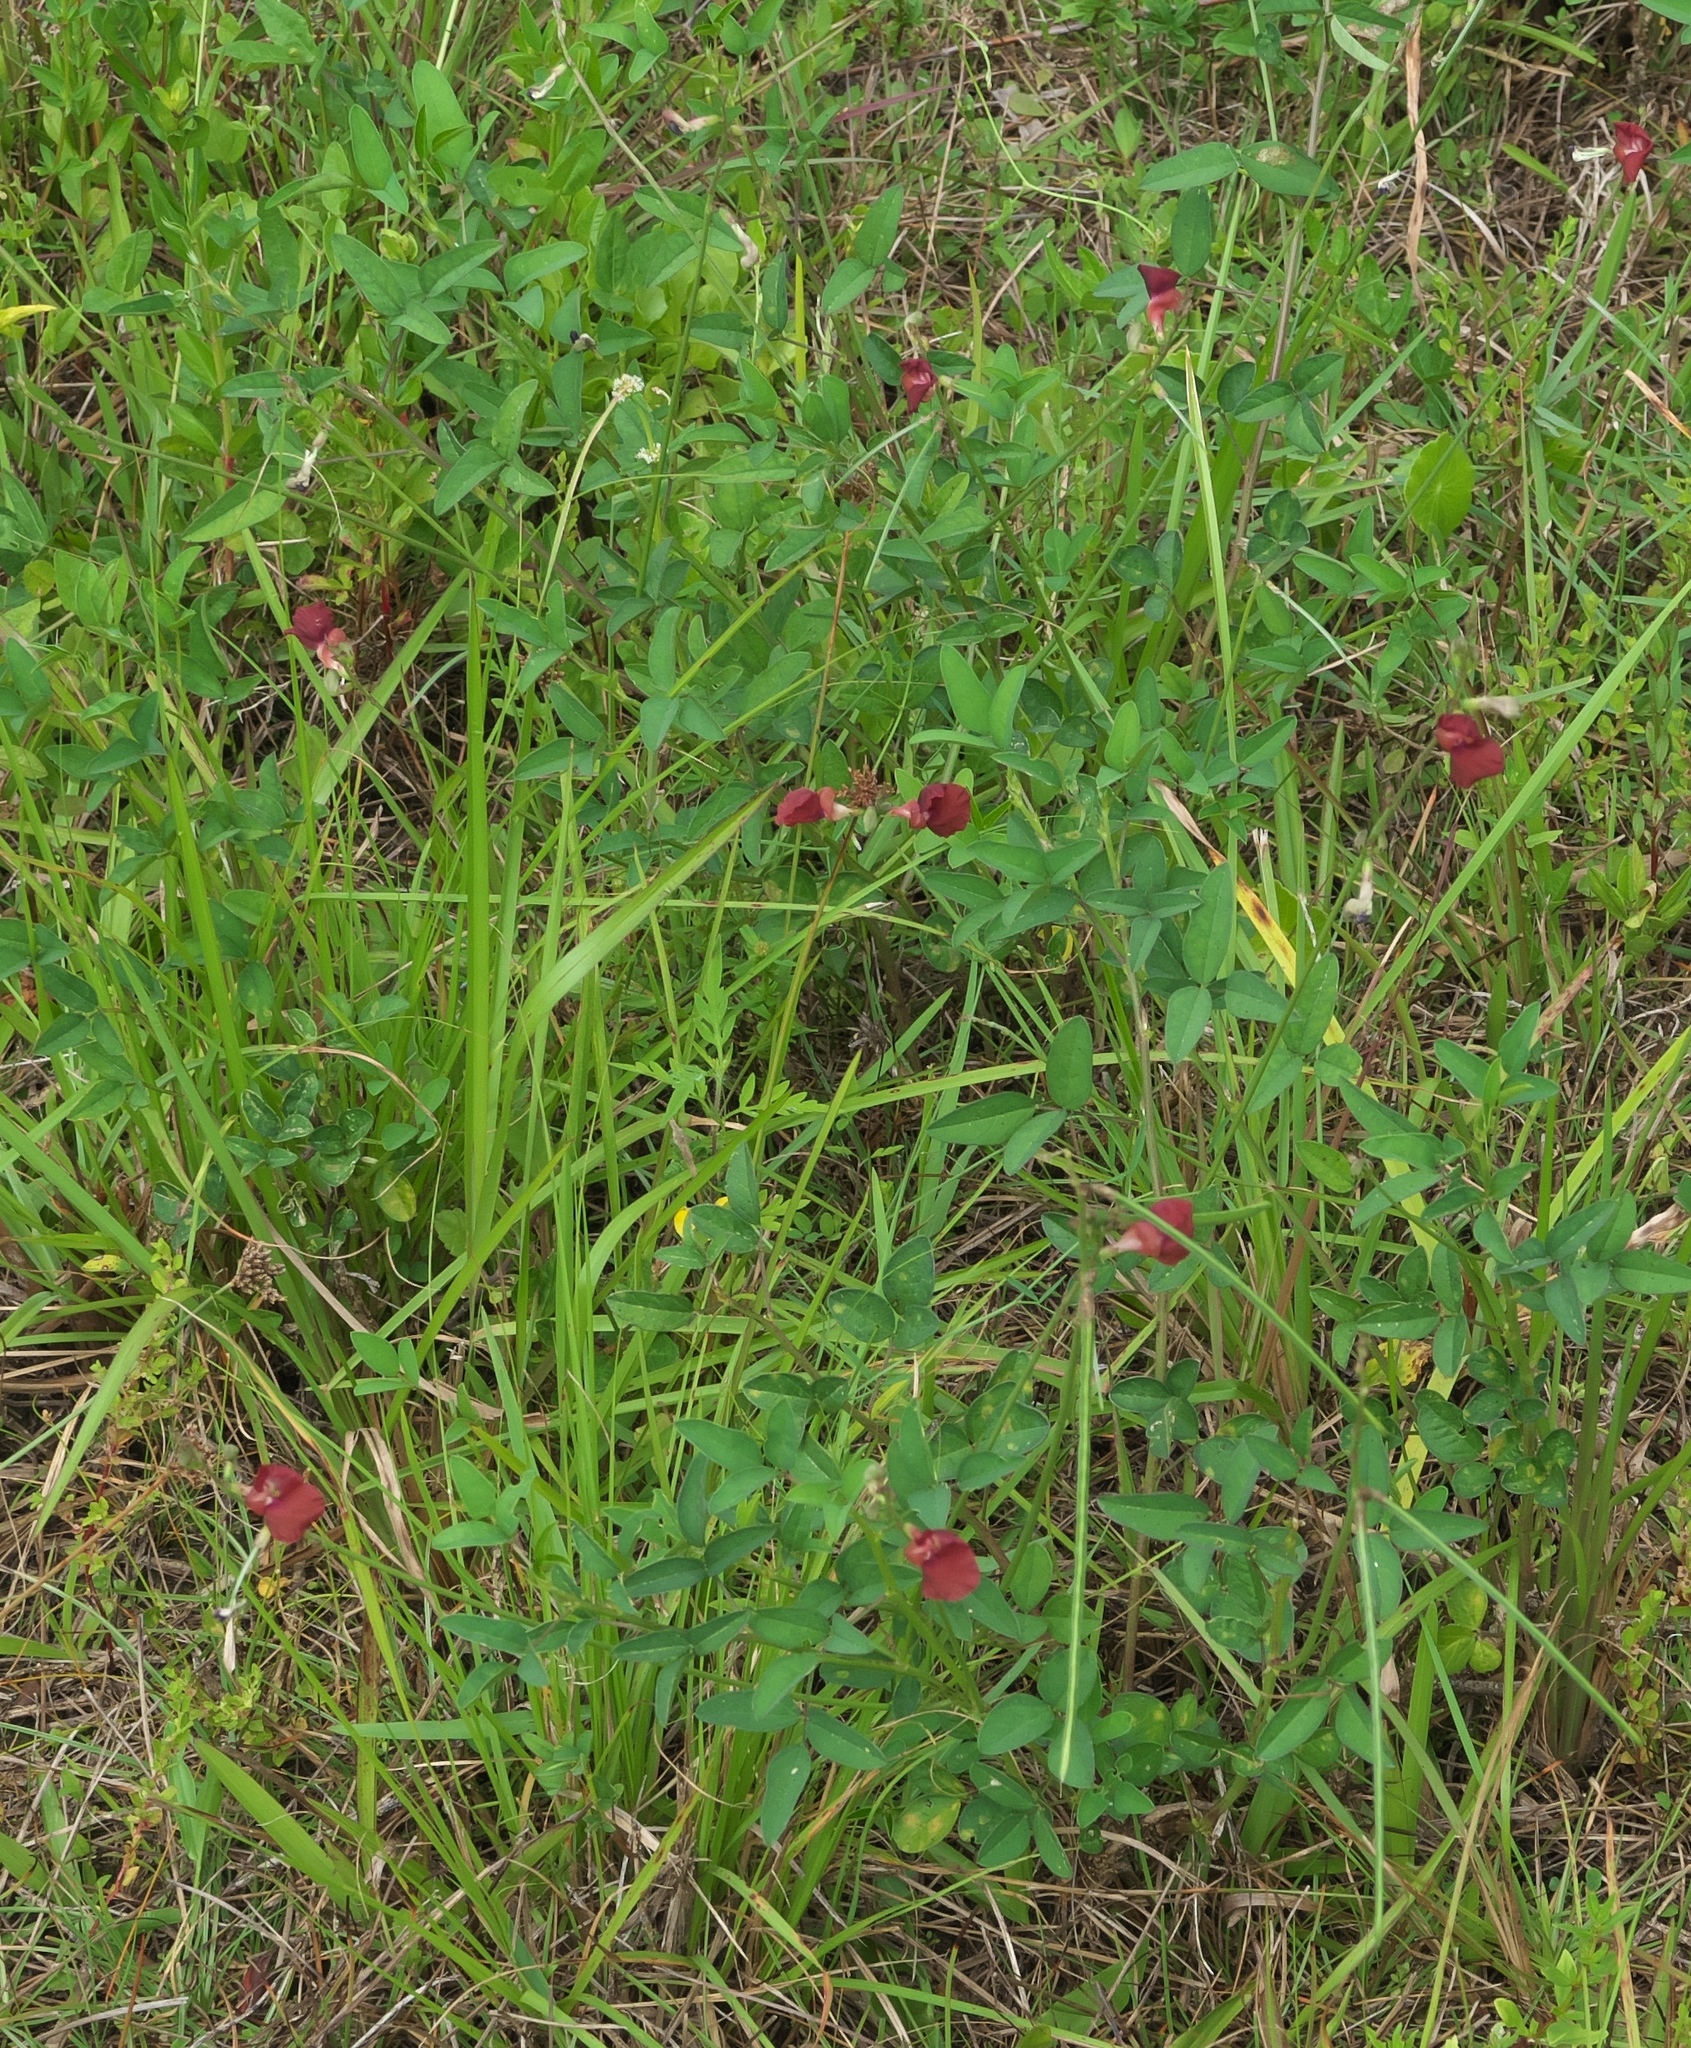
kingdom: Plantae
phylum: Tracheophyta
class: Magnoliopsida
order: Fabales
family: Fabaceae
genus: Macroptilium
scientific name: Macroptilium lathyroides
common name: Wild bushbean
